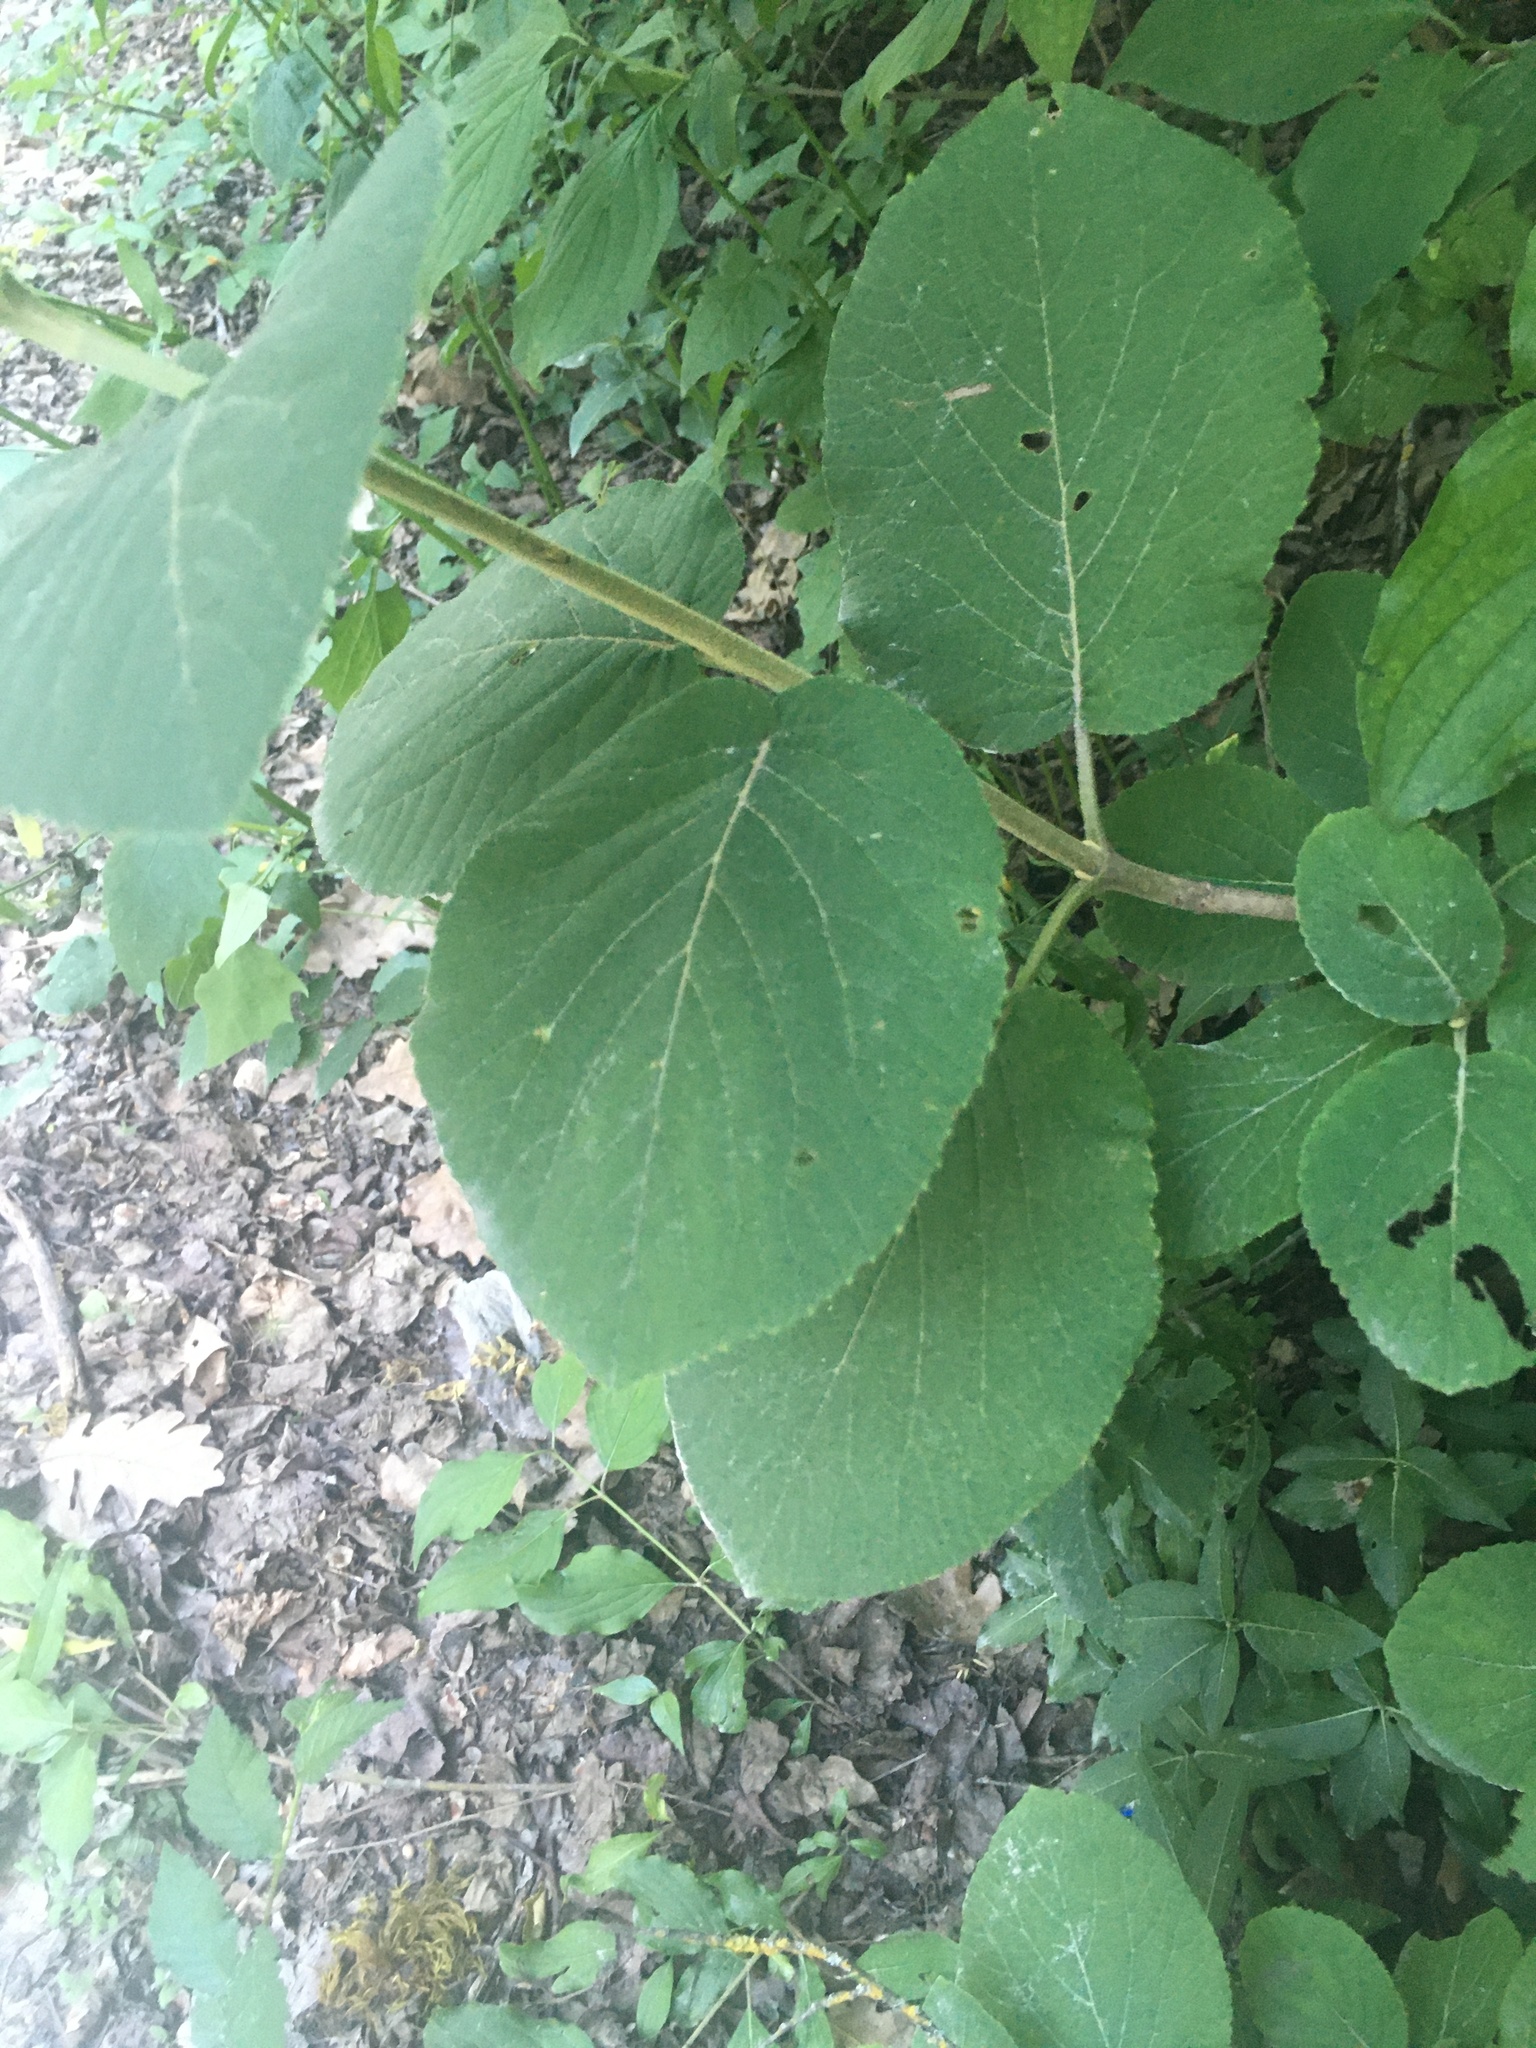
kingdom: Plantae
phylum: Tracheophyta
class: Magnoliopsida
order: Dipsacales
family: Viburnaceae
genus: Viburnum
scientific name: Viburnum lantana
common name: Wayfaring tree
